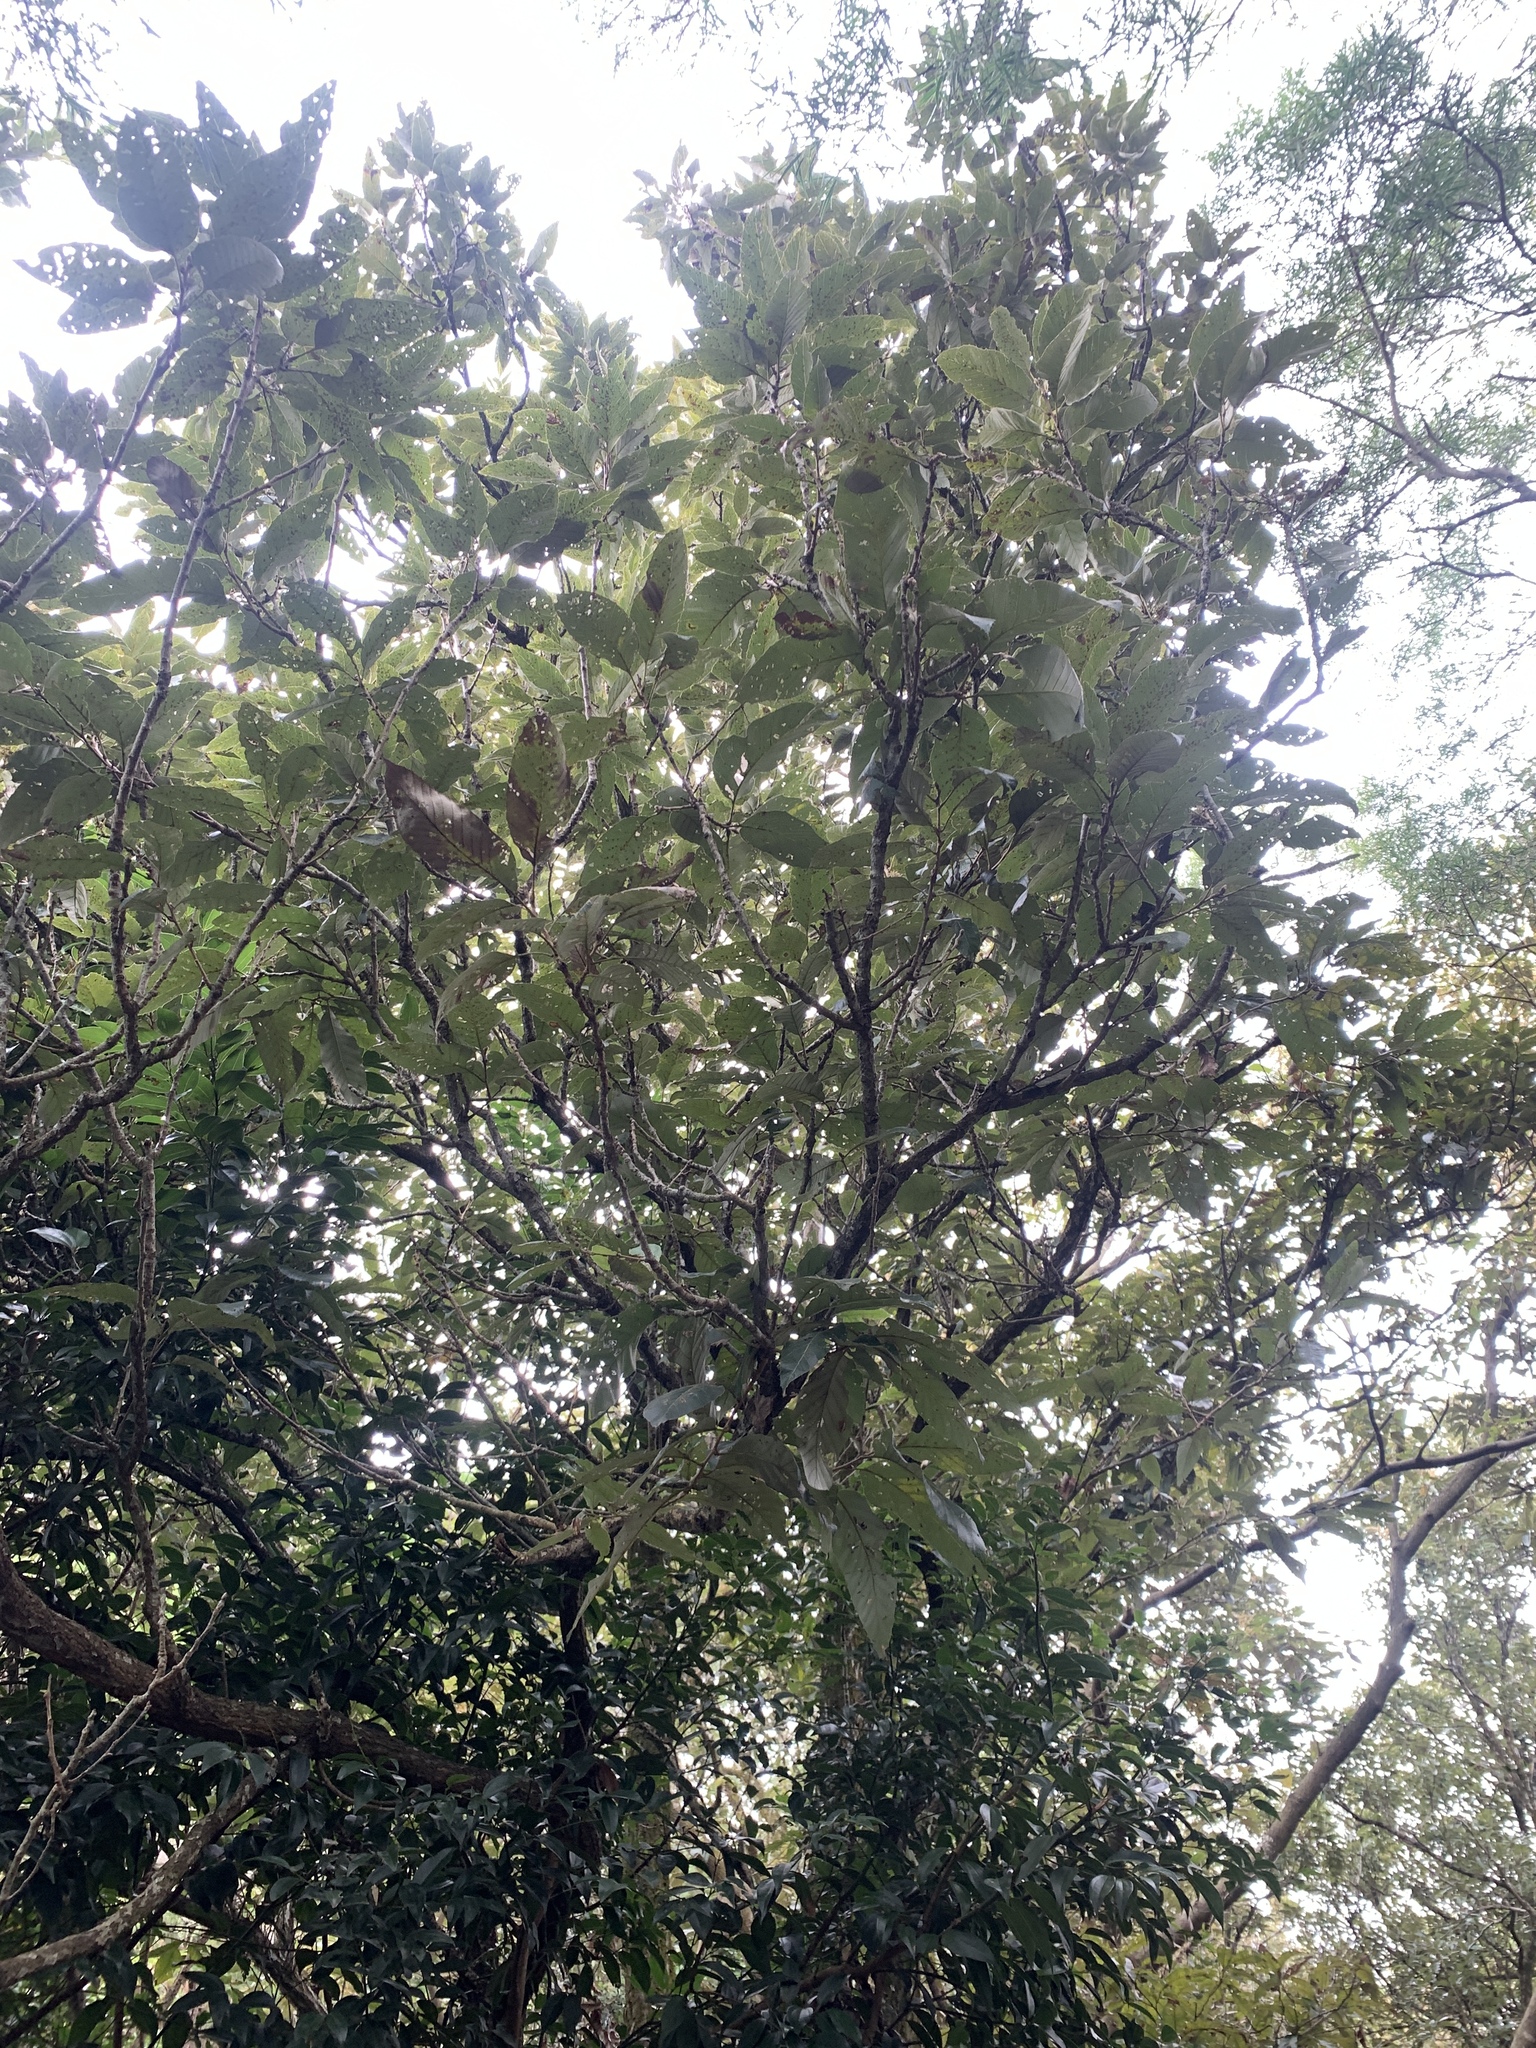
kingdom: Plantae
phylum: Tracheophyta
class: Magnoliopsida
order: Fagales
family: Fagaceae
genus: Quercus
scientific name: Quercus variabilis
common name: Chinese cork oak
